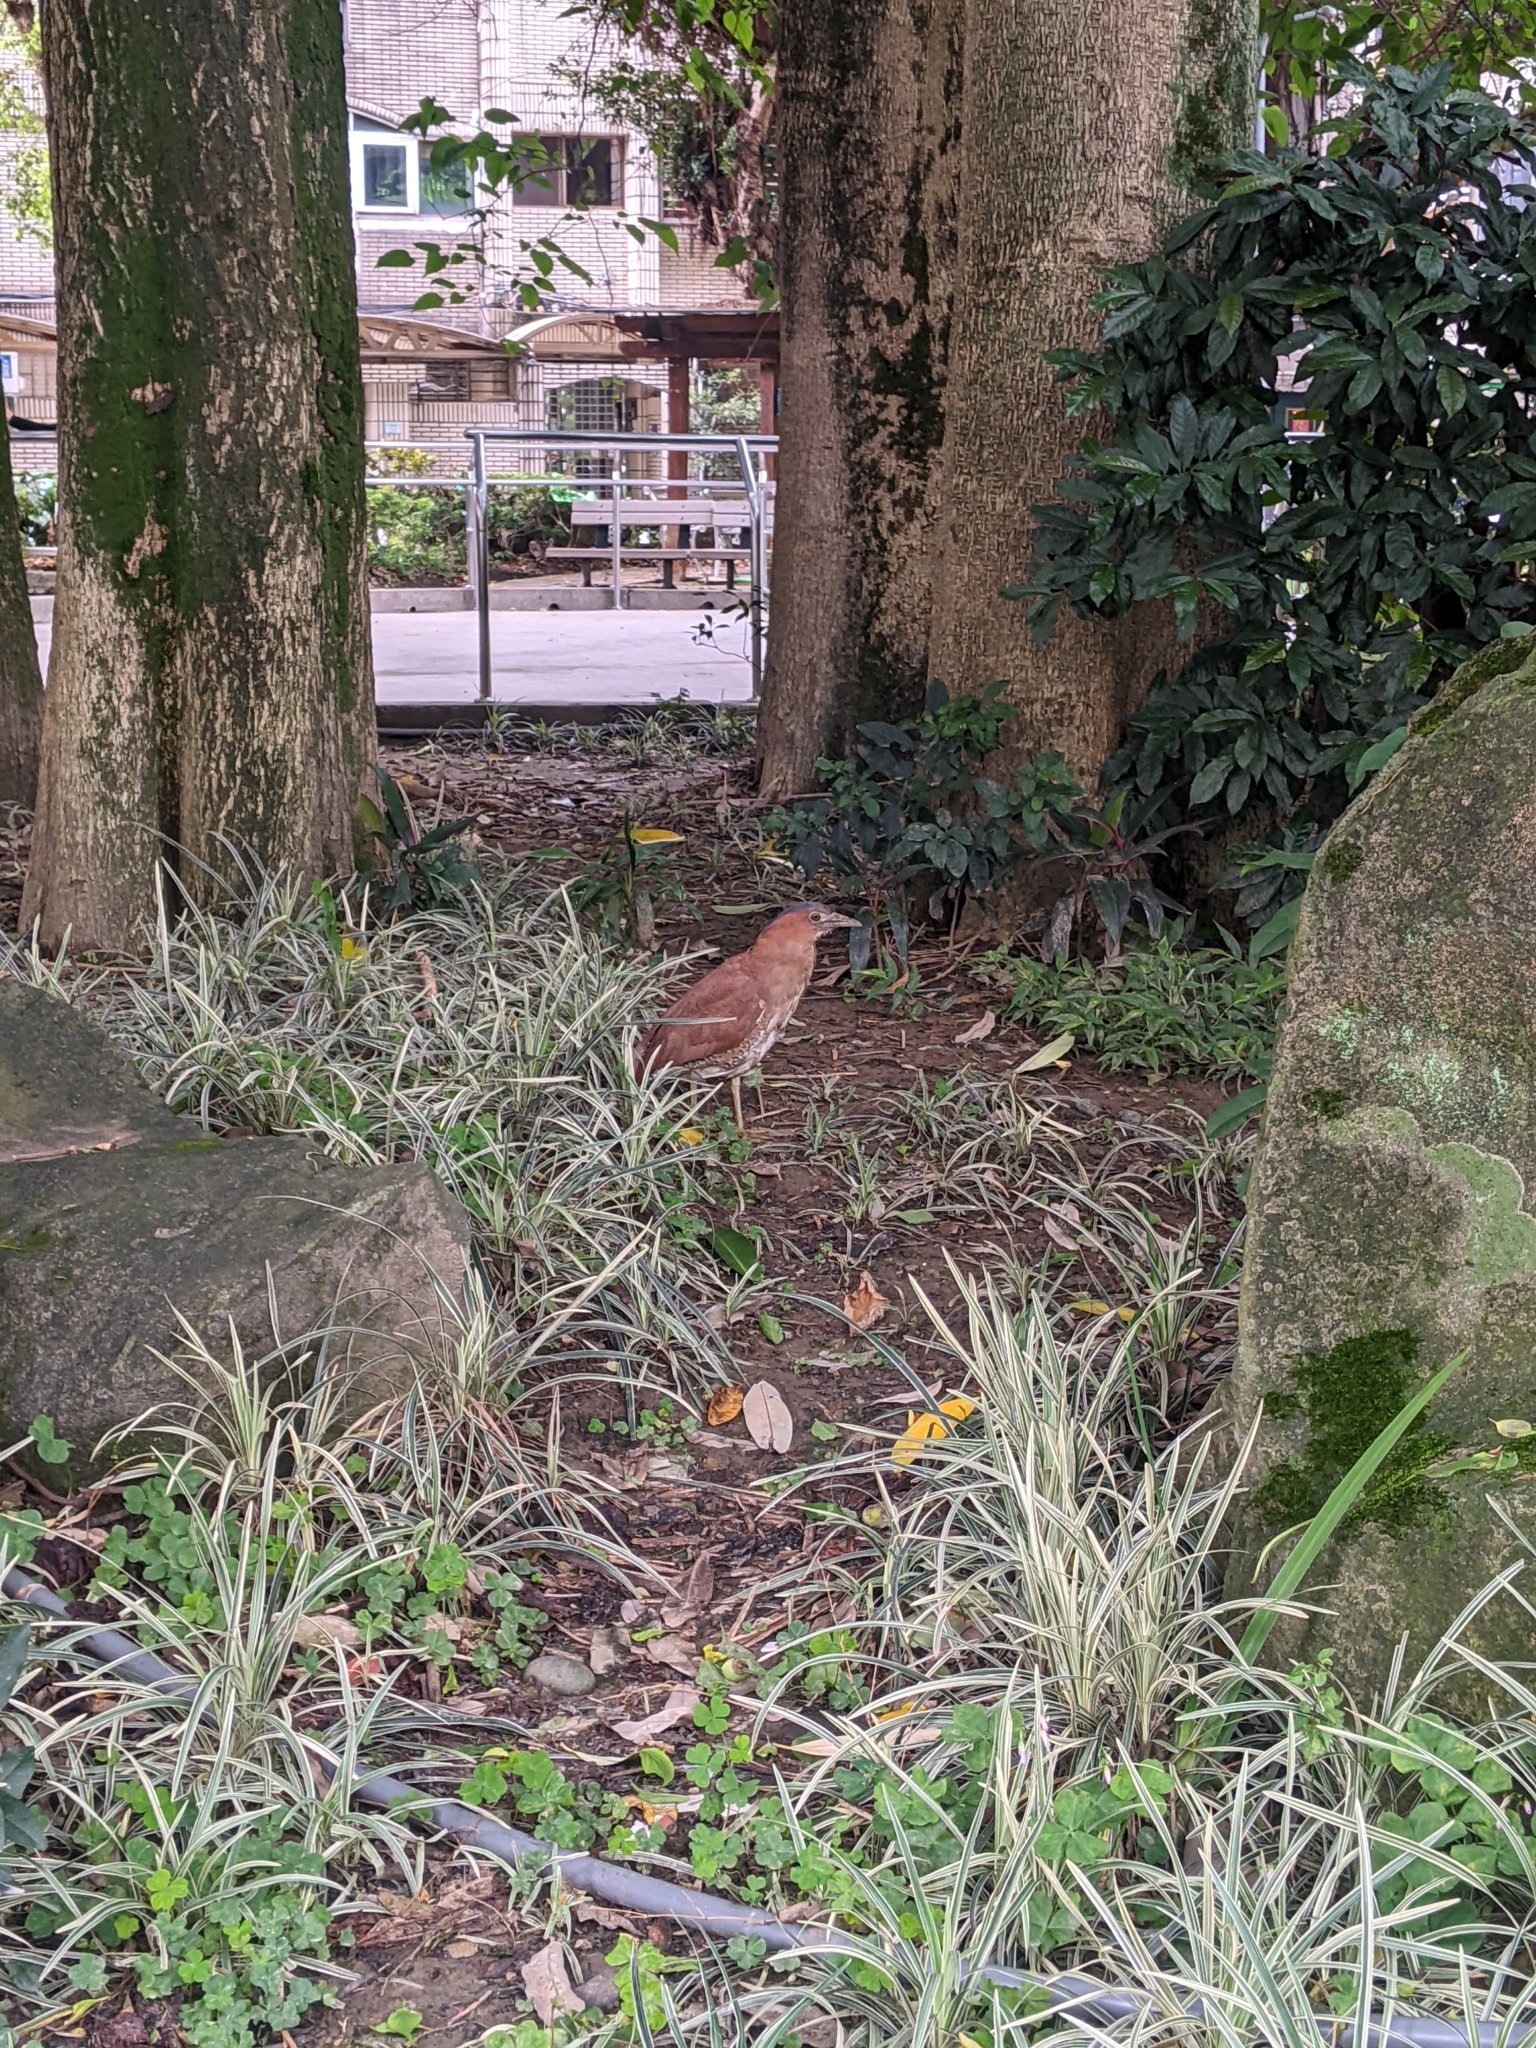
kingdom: Animalia
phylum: Chordata
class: Aves
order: Pelecaniformes
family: Ardeidae
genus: Gorsachius
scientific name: Gorsachius melanolophus
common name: Malayan night heron
